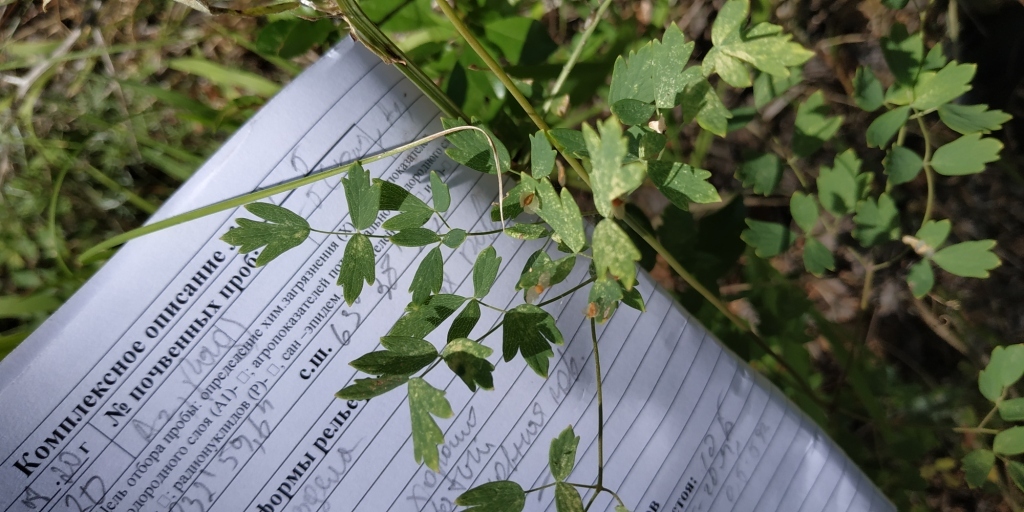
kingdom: Plantae
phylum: Tracheophyta
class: Magnoliopsida
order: Ranunculales
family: Ranunculaceae
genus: Thalictrum
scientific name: Thalictrum minus
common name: Lesser meadow-rue
